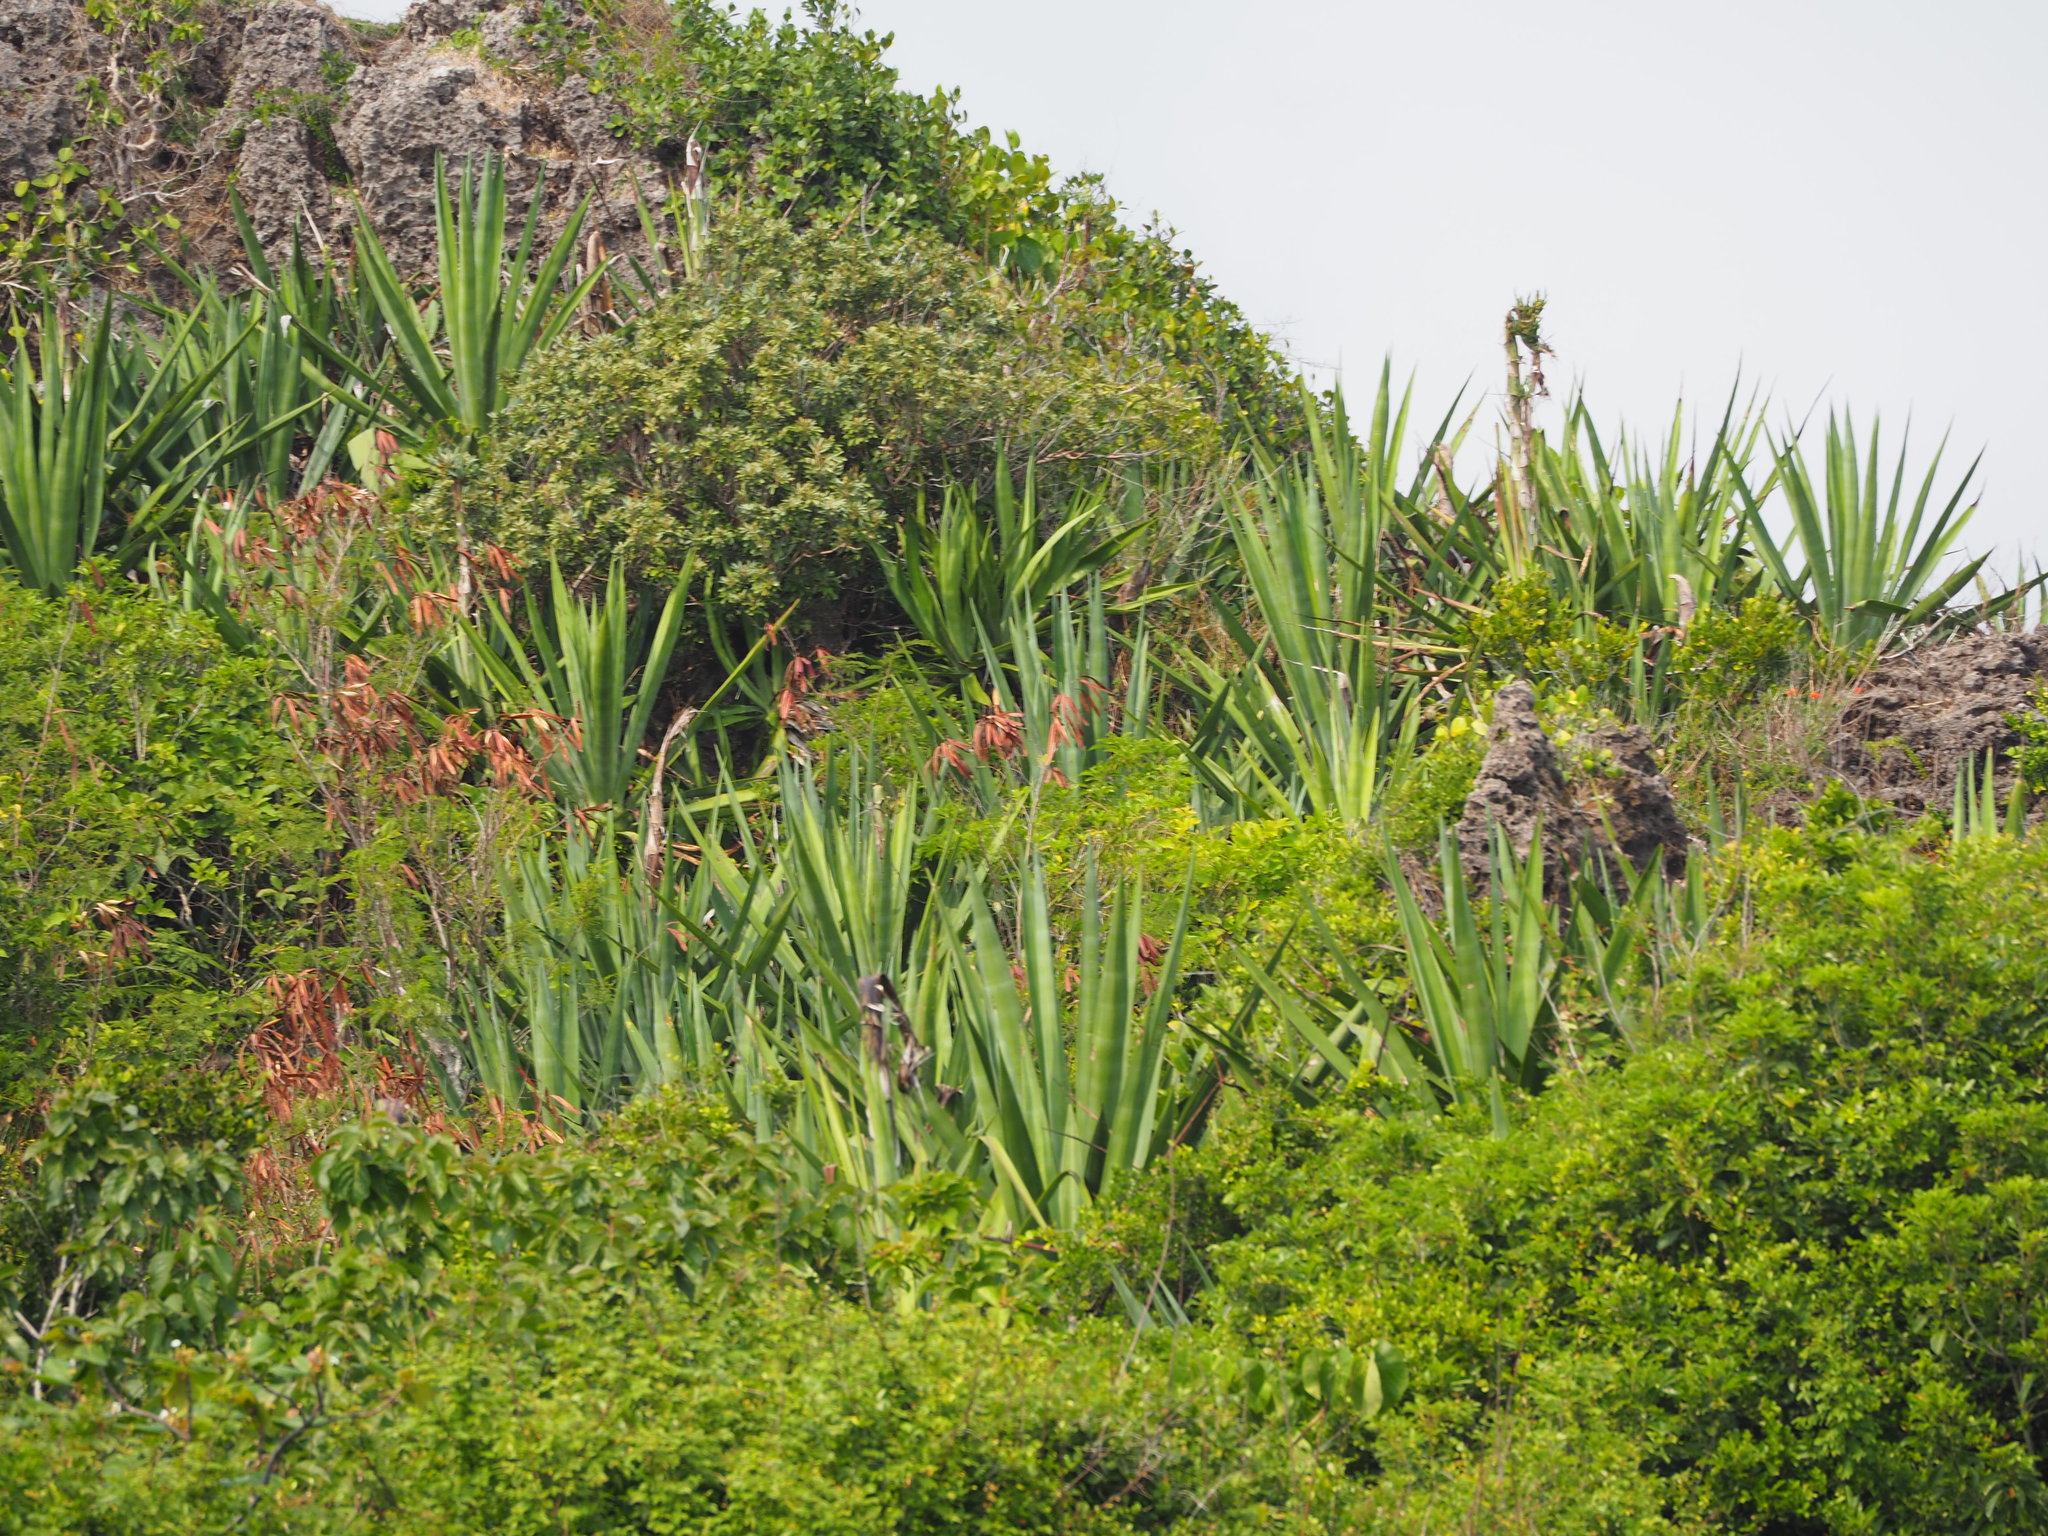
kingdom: Plantae
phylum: Tracheophyta
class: Liliopsida
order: Asparagales
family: Asparagaceae
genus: Agave
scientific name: Agave sisalana
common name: Sisal hemp
